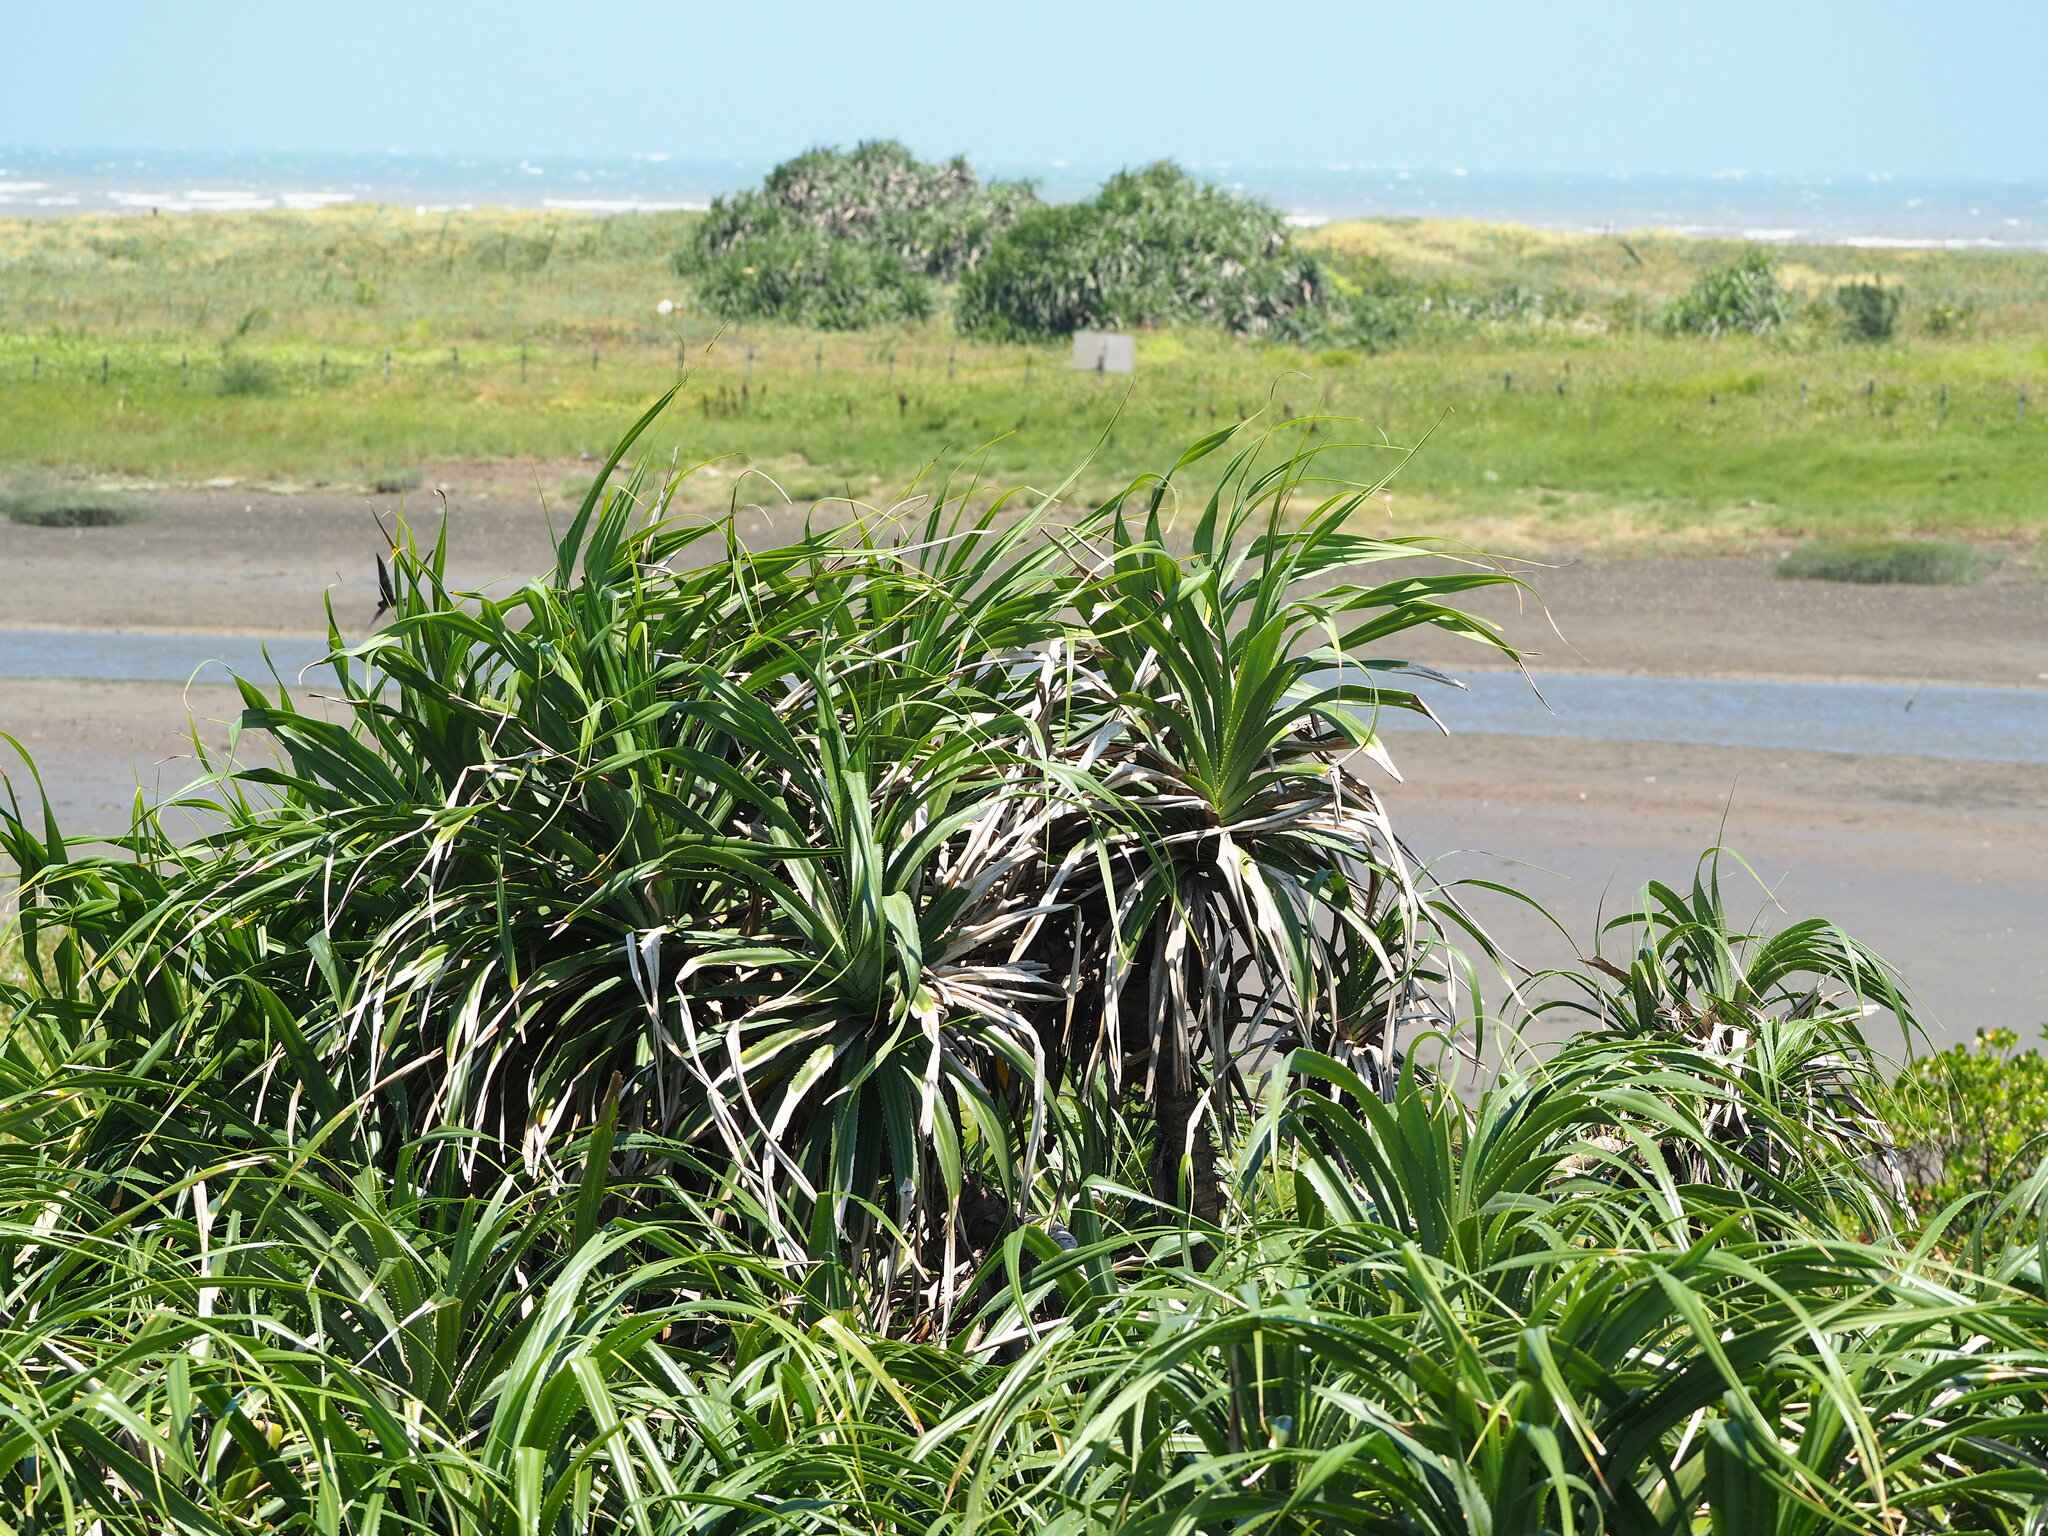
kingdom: Plantae
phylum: Tracheophyta
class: Liliopsida
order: Pandanales
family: Pandanaceae
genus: Pandanus
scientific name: Pandanus odorifer
